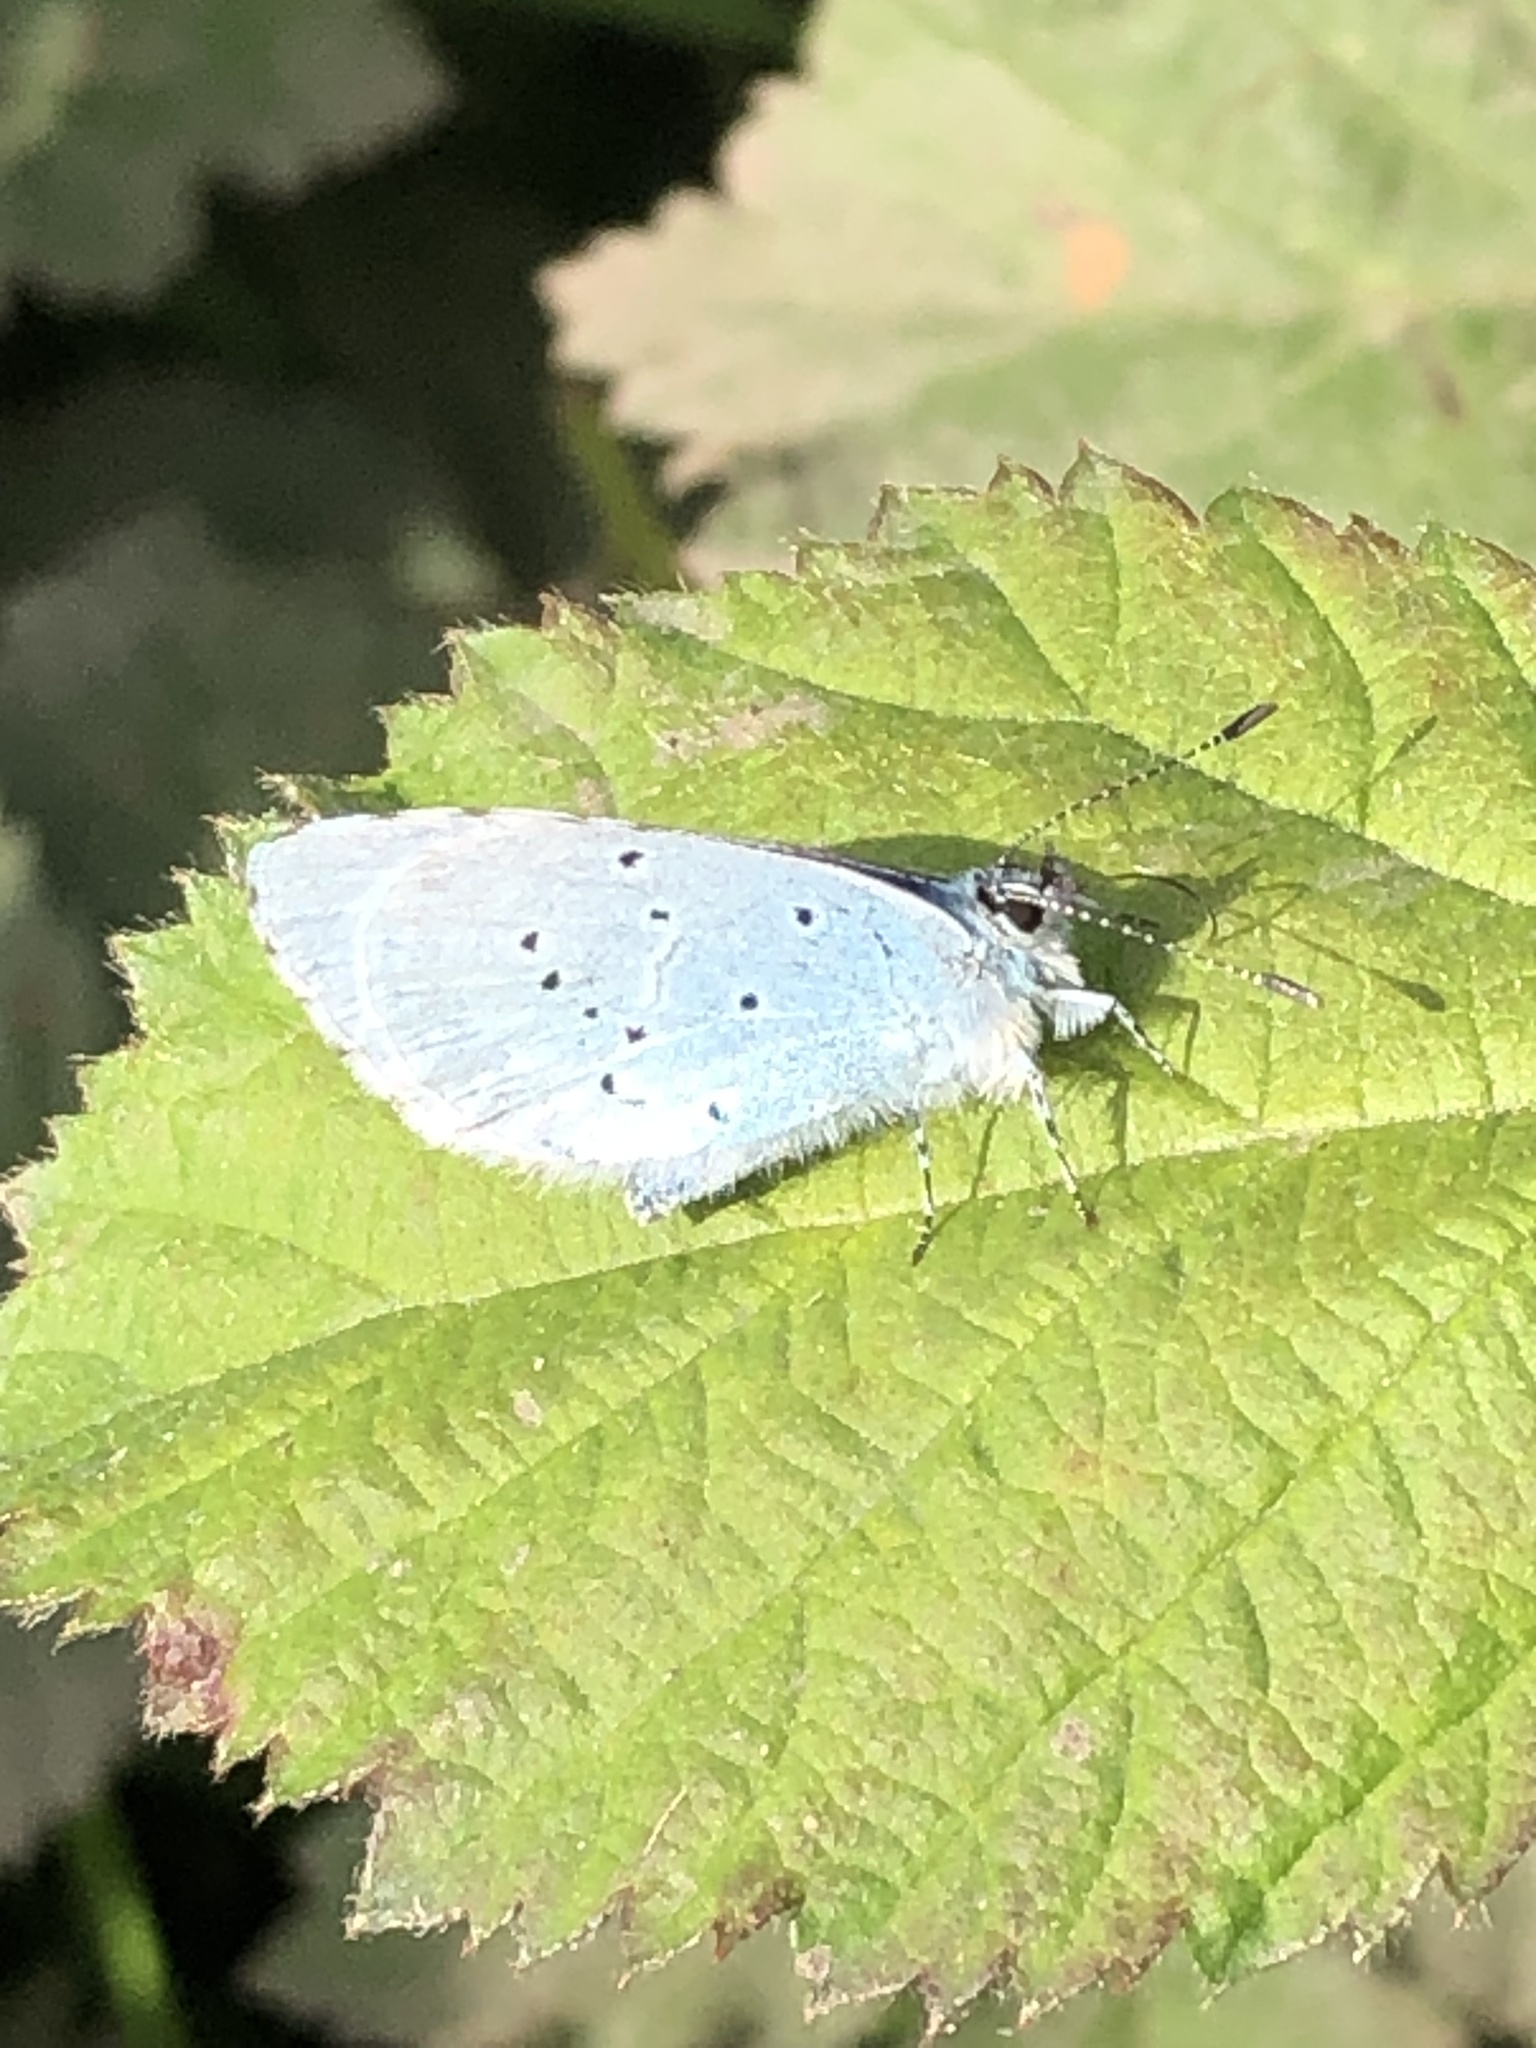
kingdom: Animalia
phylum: Arthropoda
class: Insecta
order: Lepidoptera
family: Lycaenidae
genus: Celastrina
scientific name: Celastrina argiolus
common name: Holly blue
